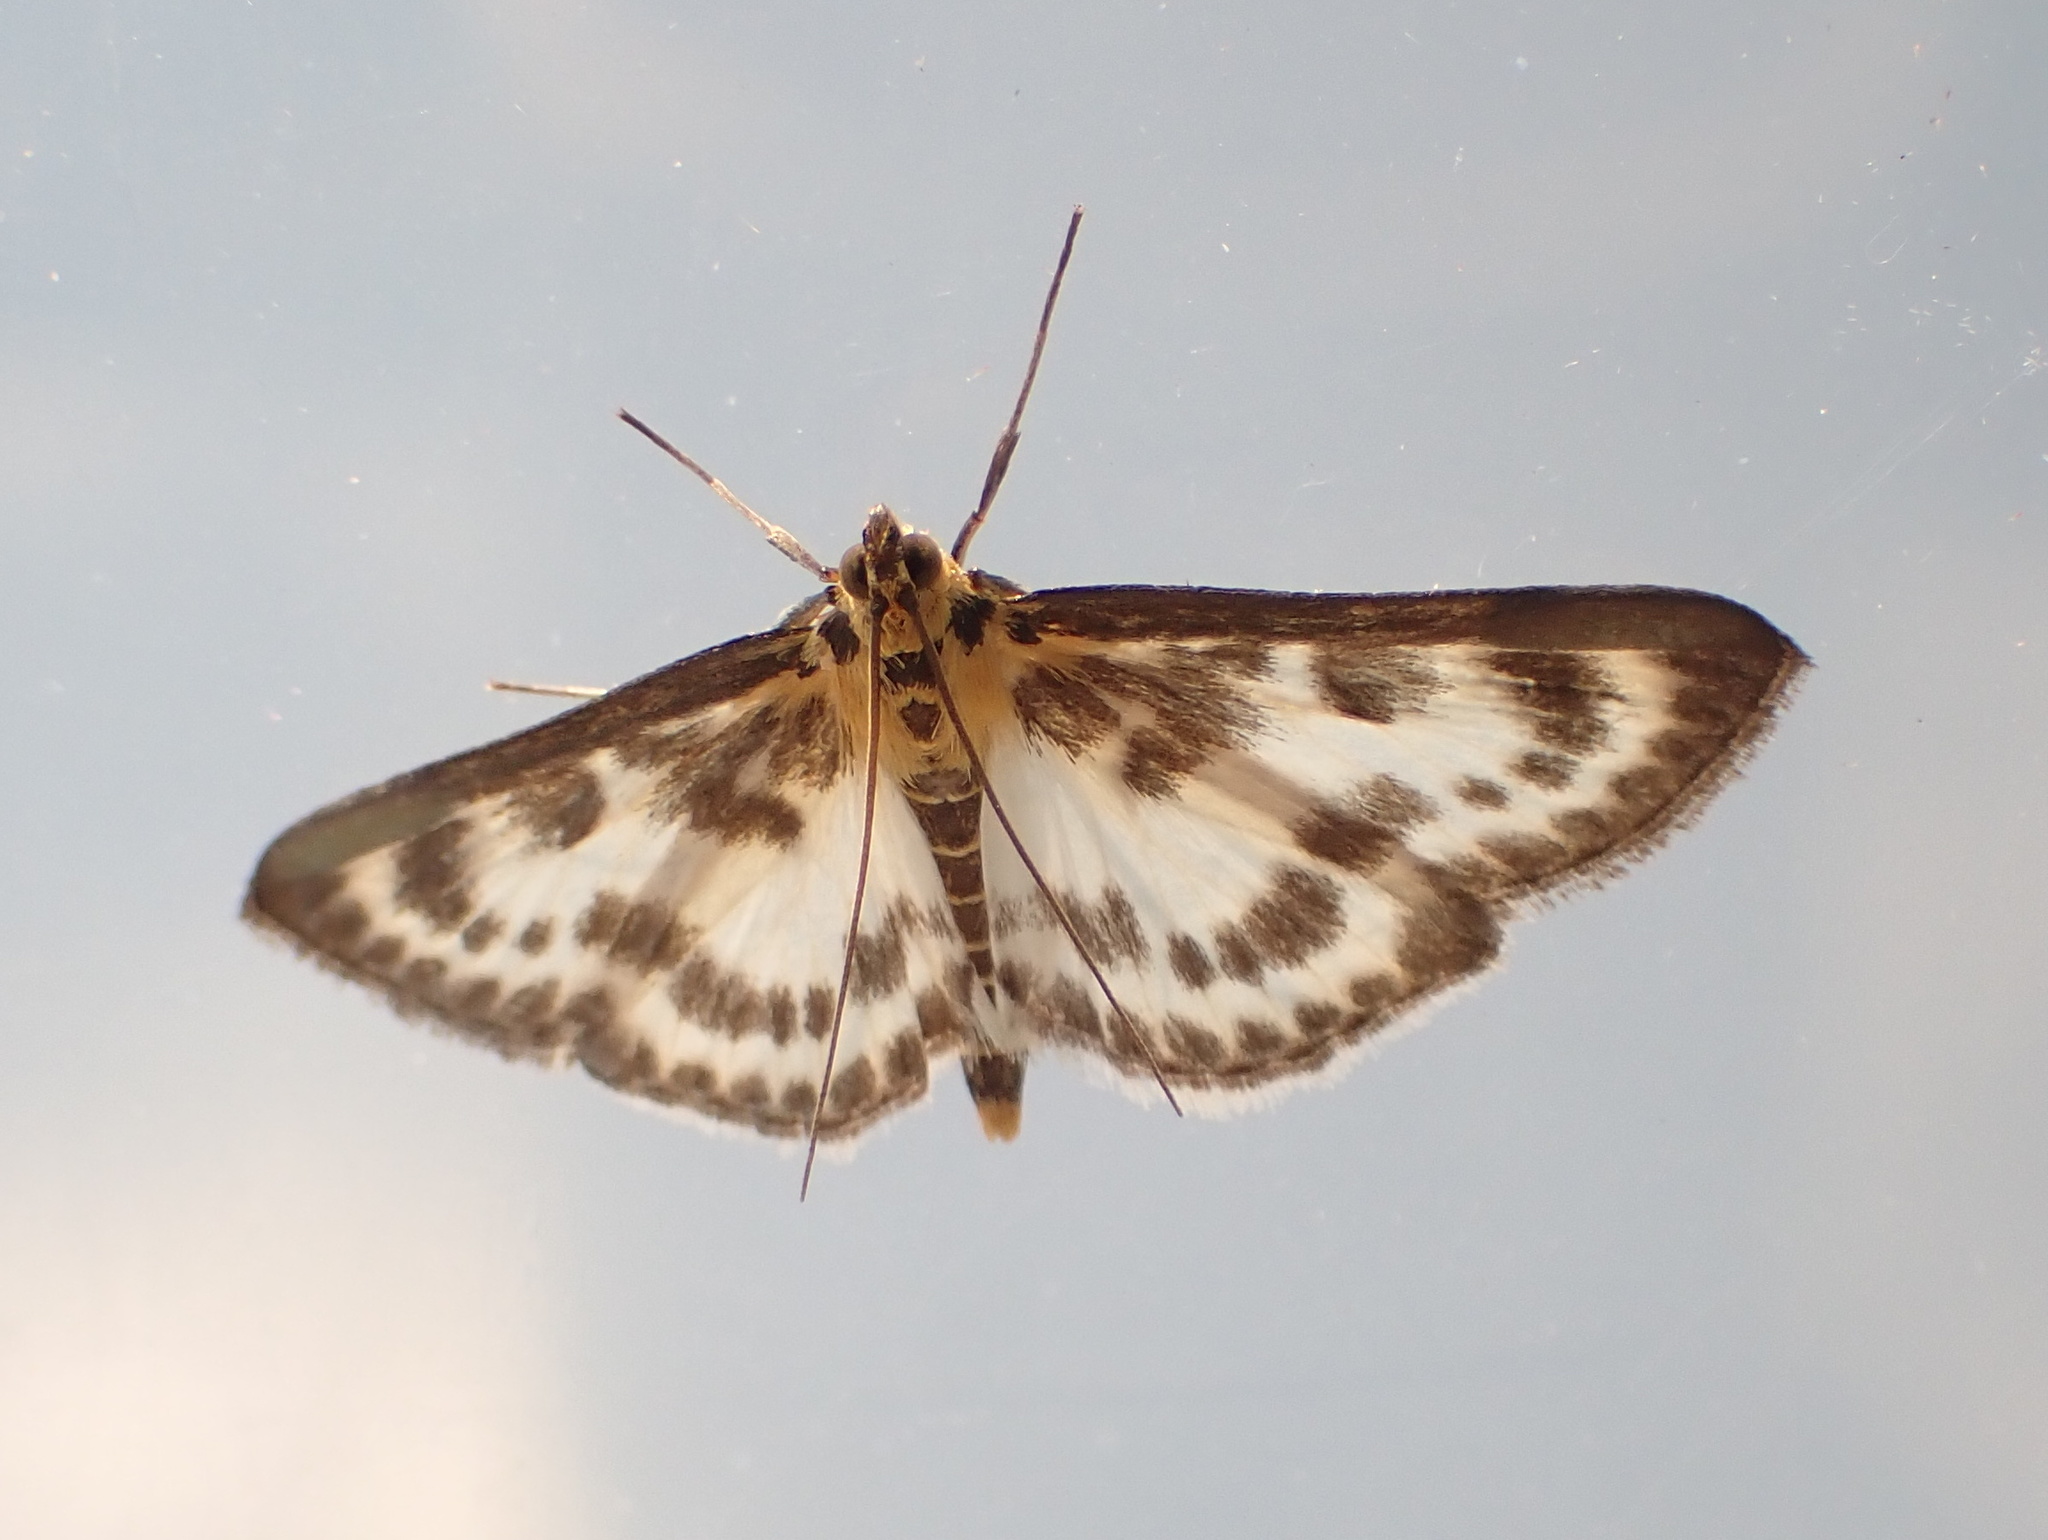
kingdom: Animalia
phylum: Arthropoda
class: Insecta
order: Lepidoptera
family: Crambidae
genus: Anania
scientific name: Anania hortulata
